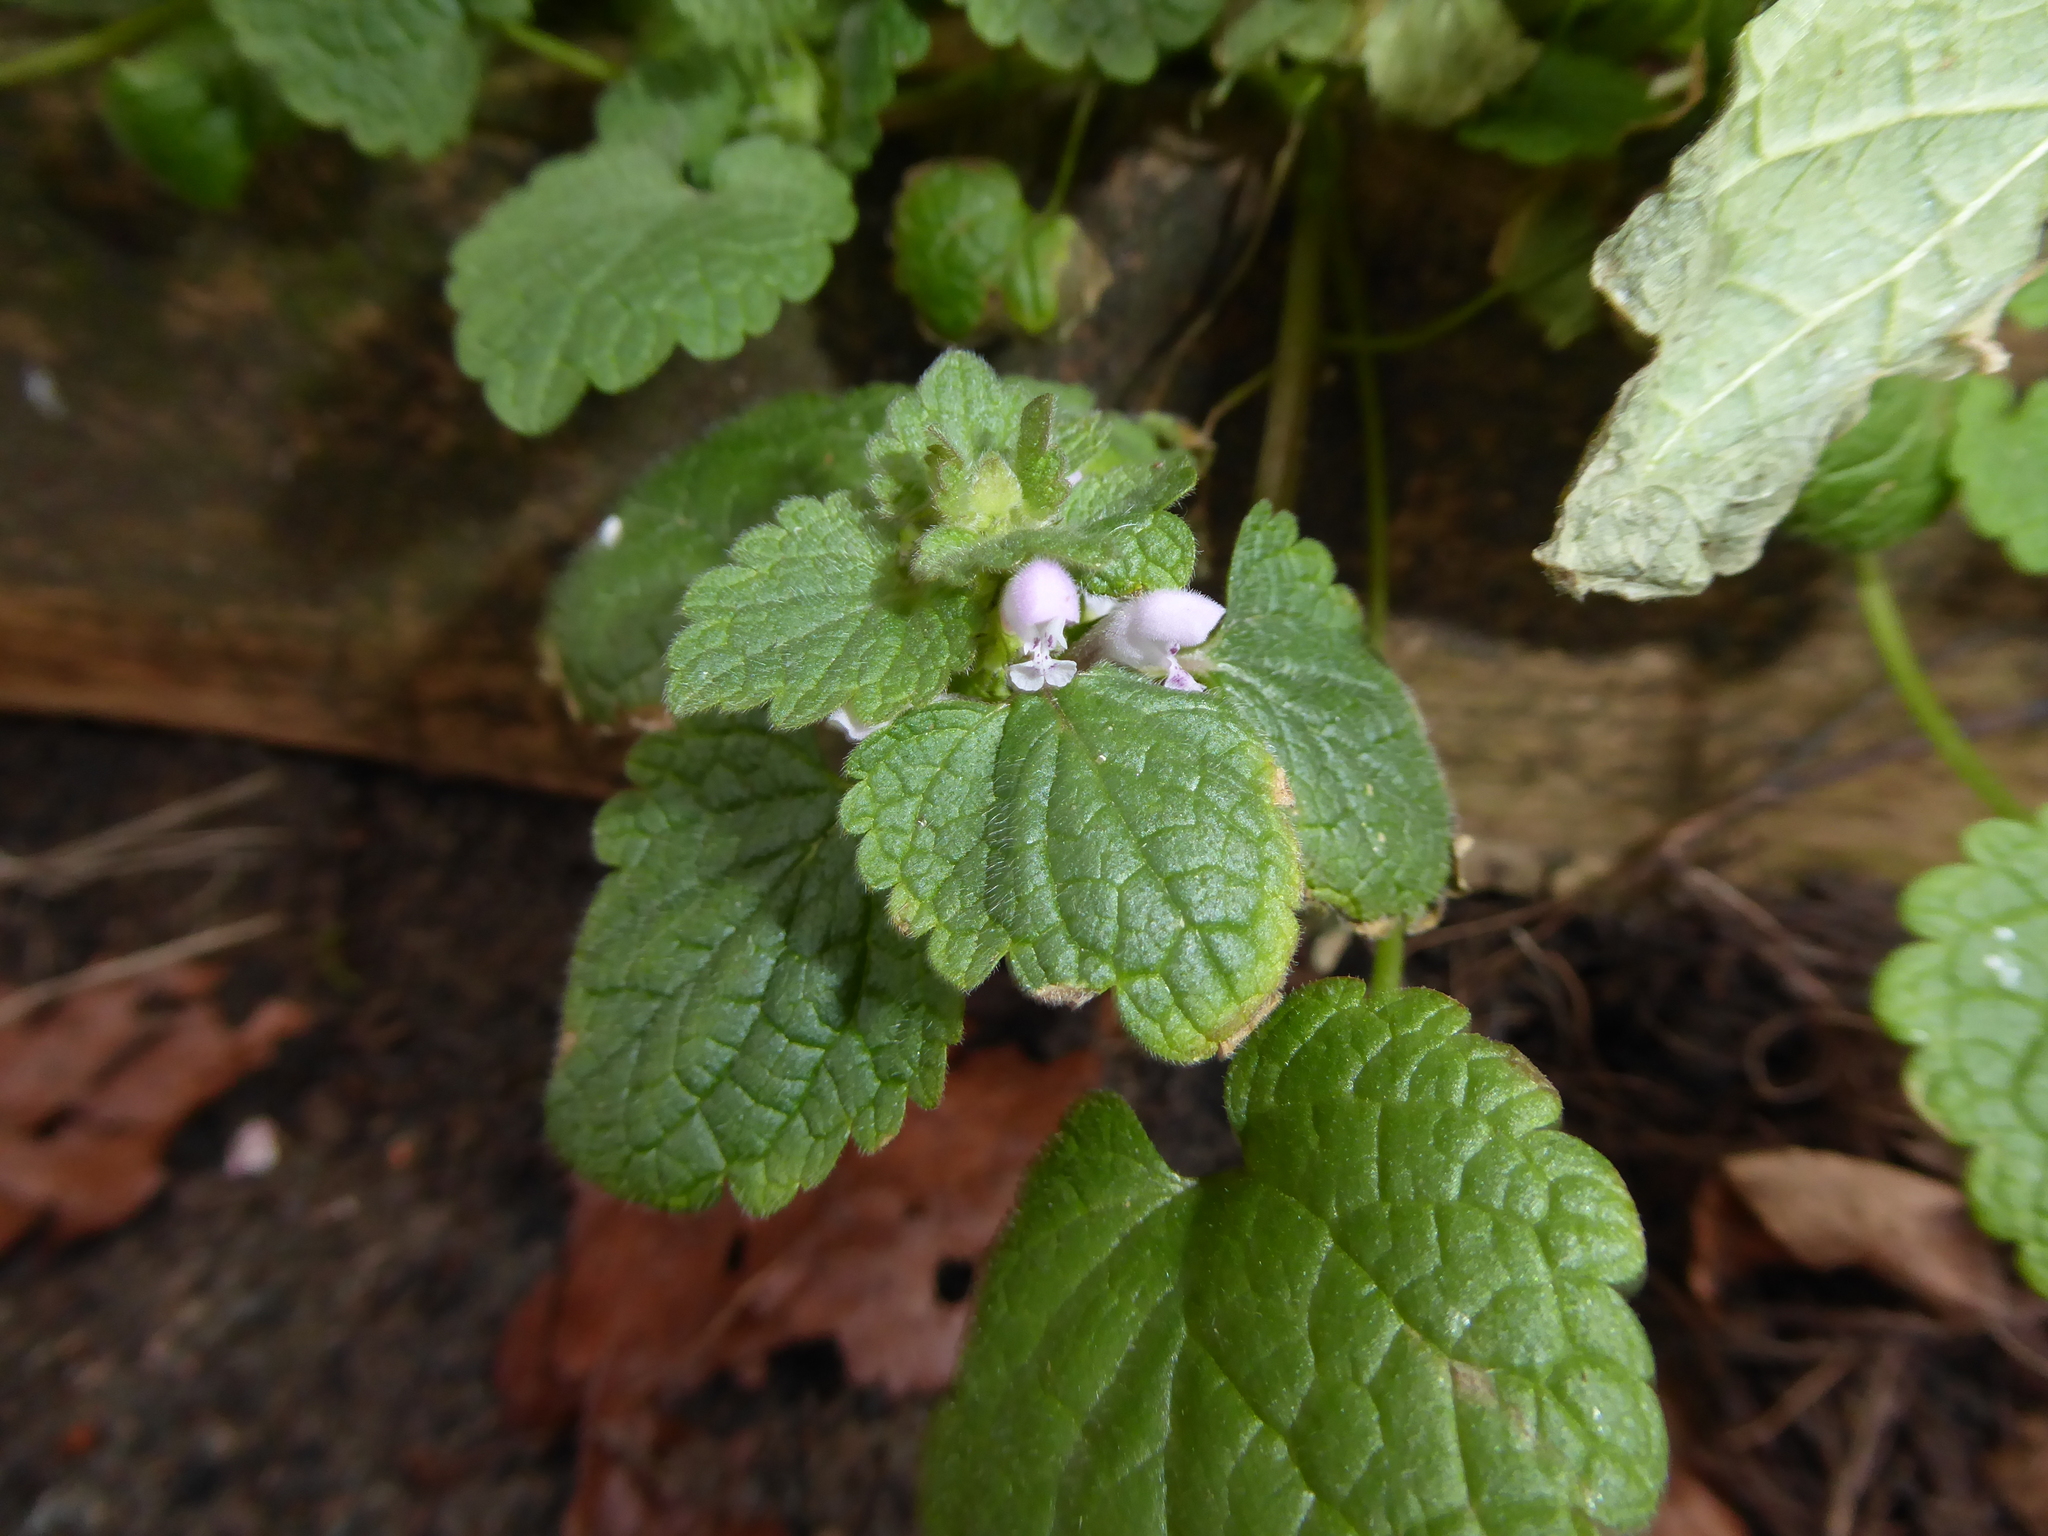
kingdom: Plantae
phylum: Tracheophyta
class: Magnoliopsida
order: Lamiales
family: Lamiaceae
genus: Lamium
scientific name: Lamium purpureum
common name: Red dead-nettle
